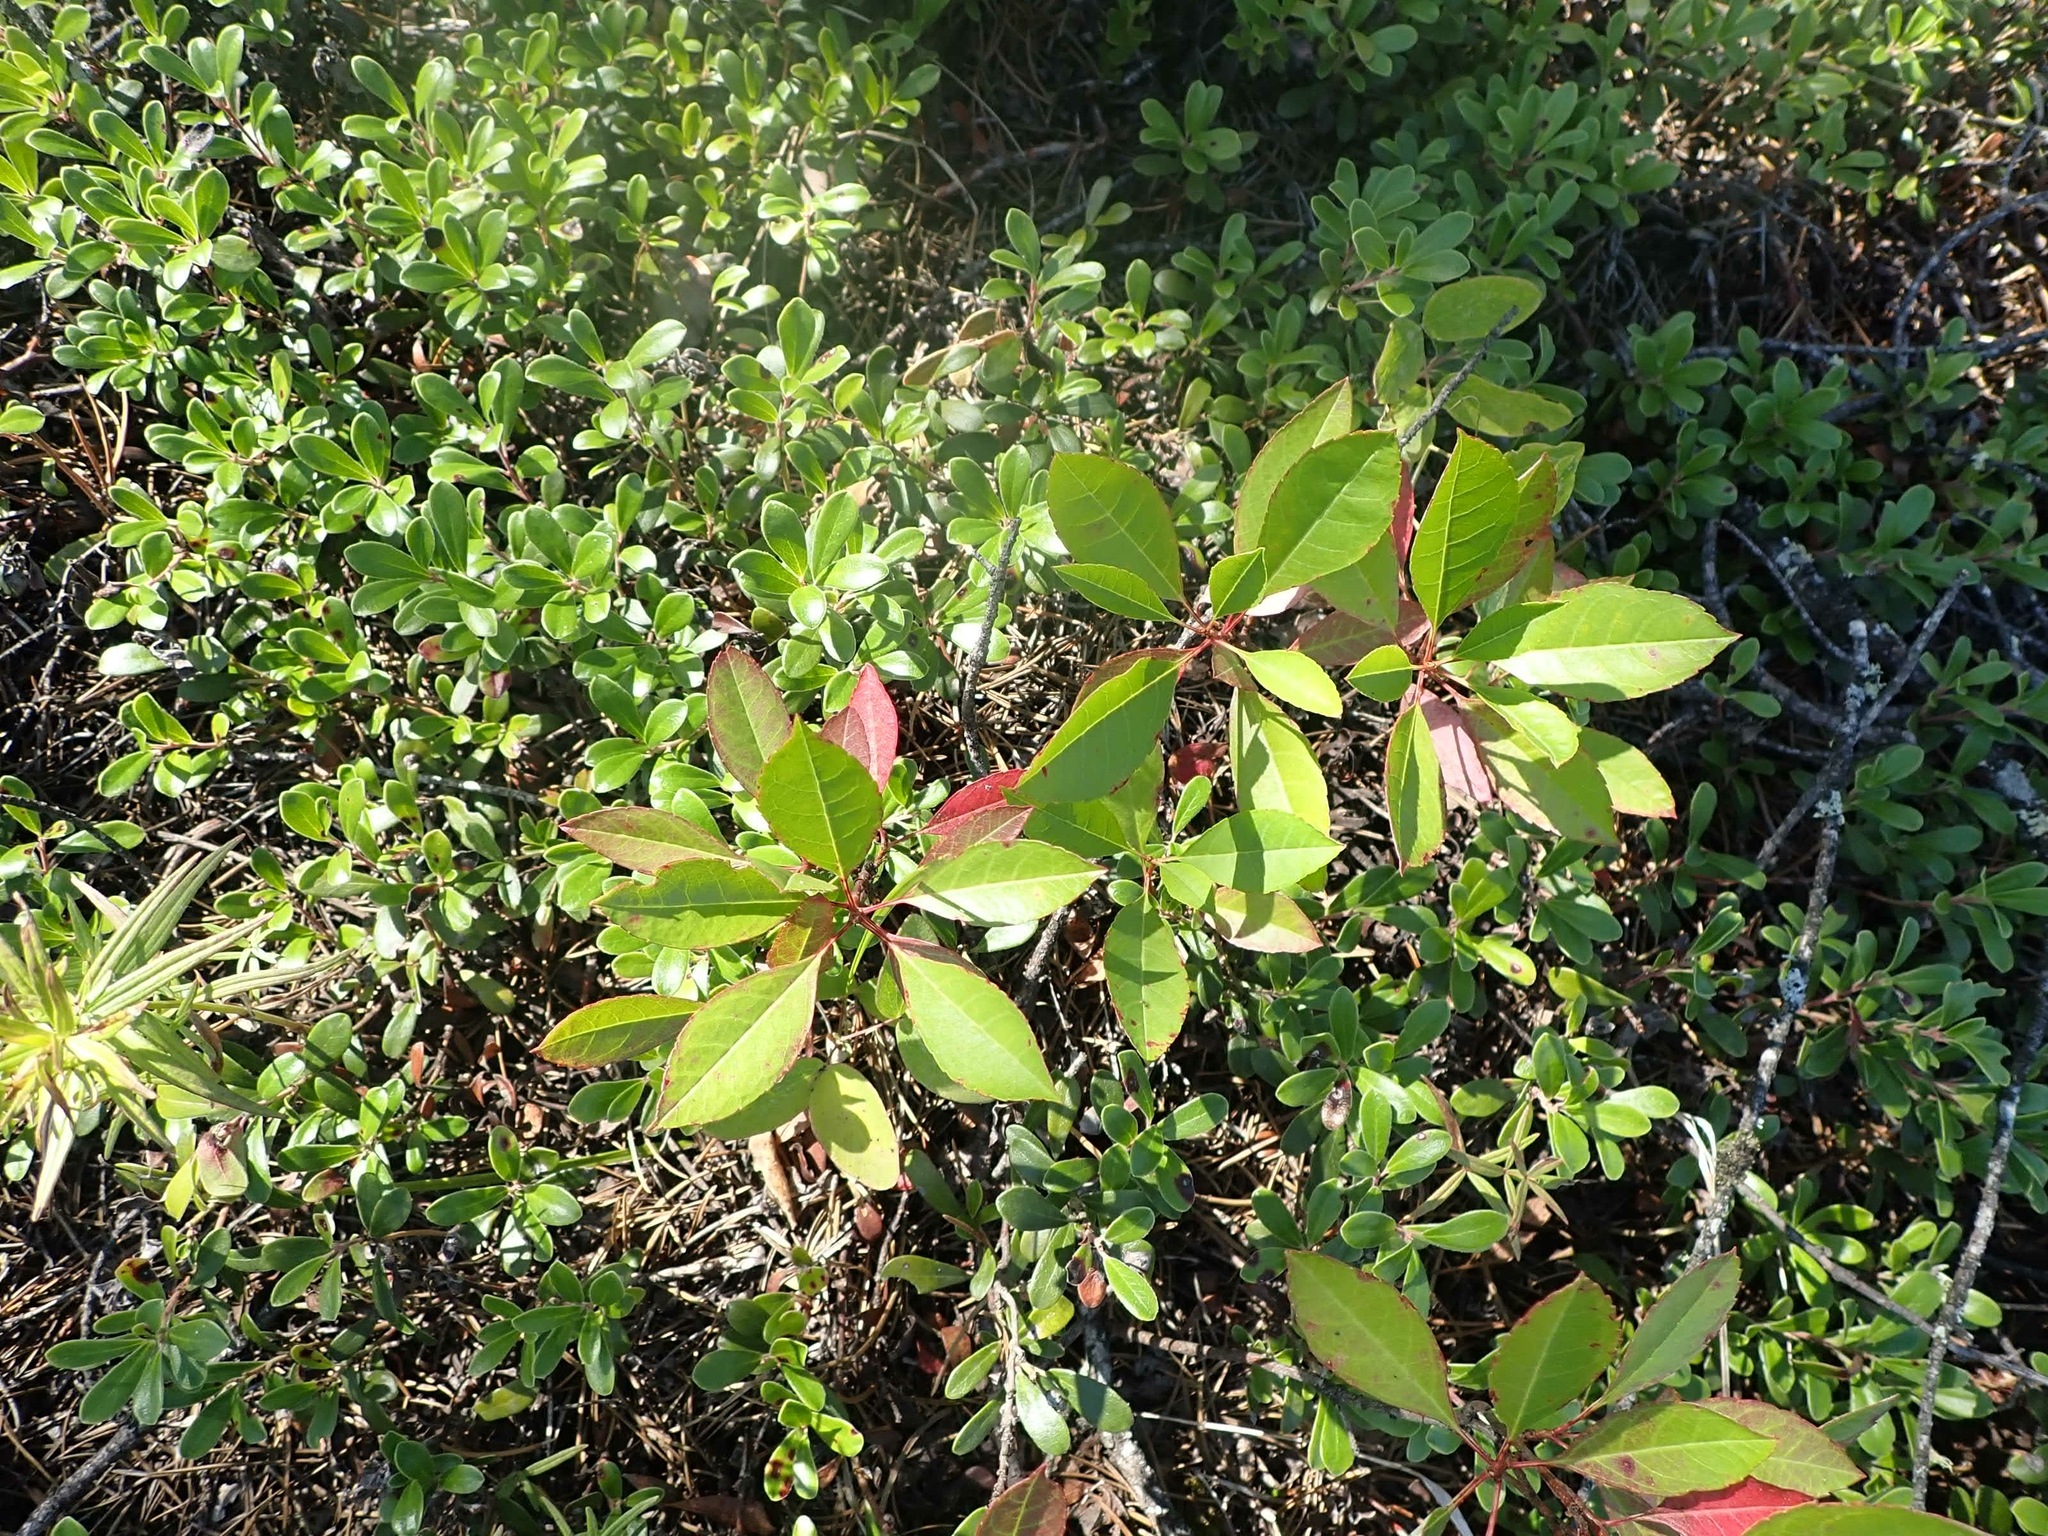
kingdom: Plantae
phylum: Tracheophyta
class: Magnoliopsida
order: Rosales
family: Rosaceae
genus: Prunus
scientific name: Prunus pumila
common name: Dwarf cherry
